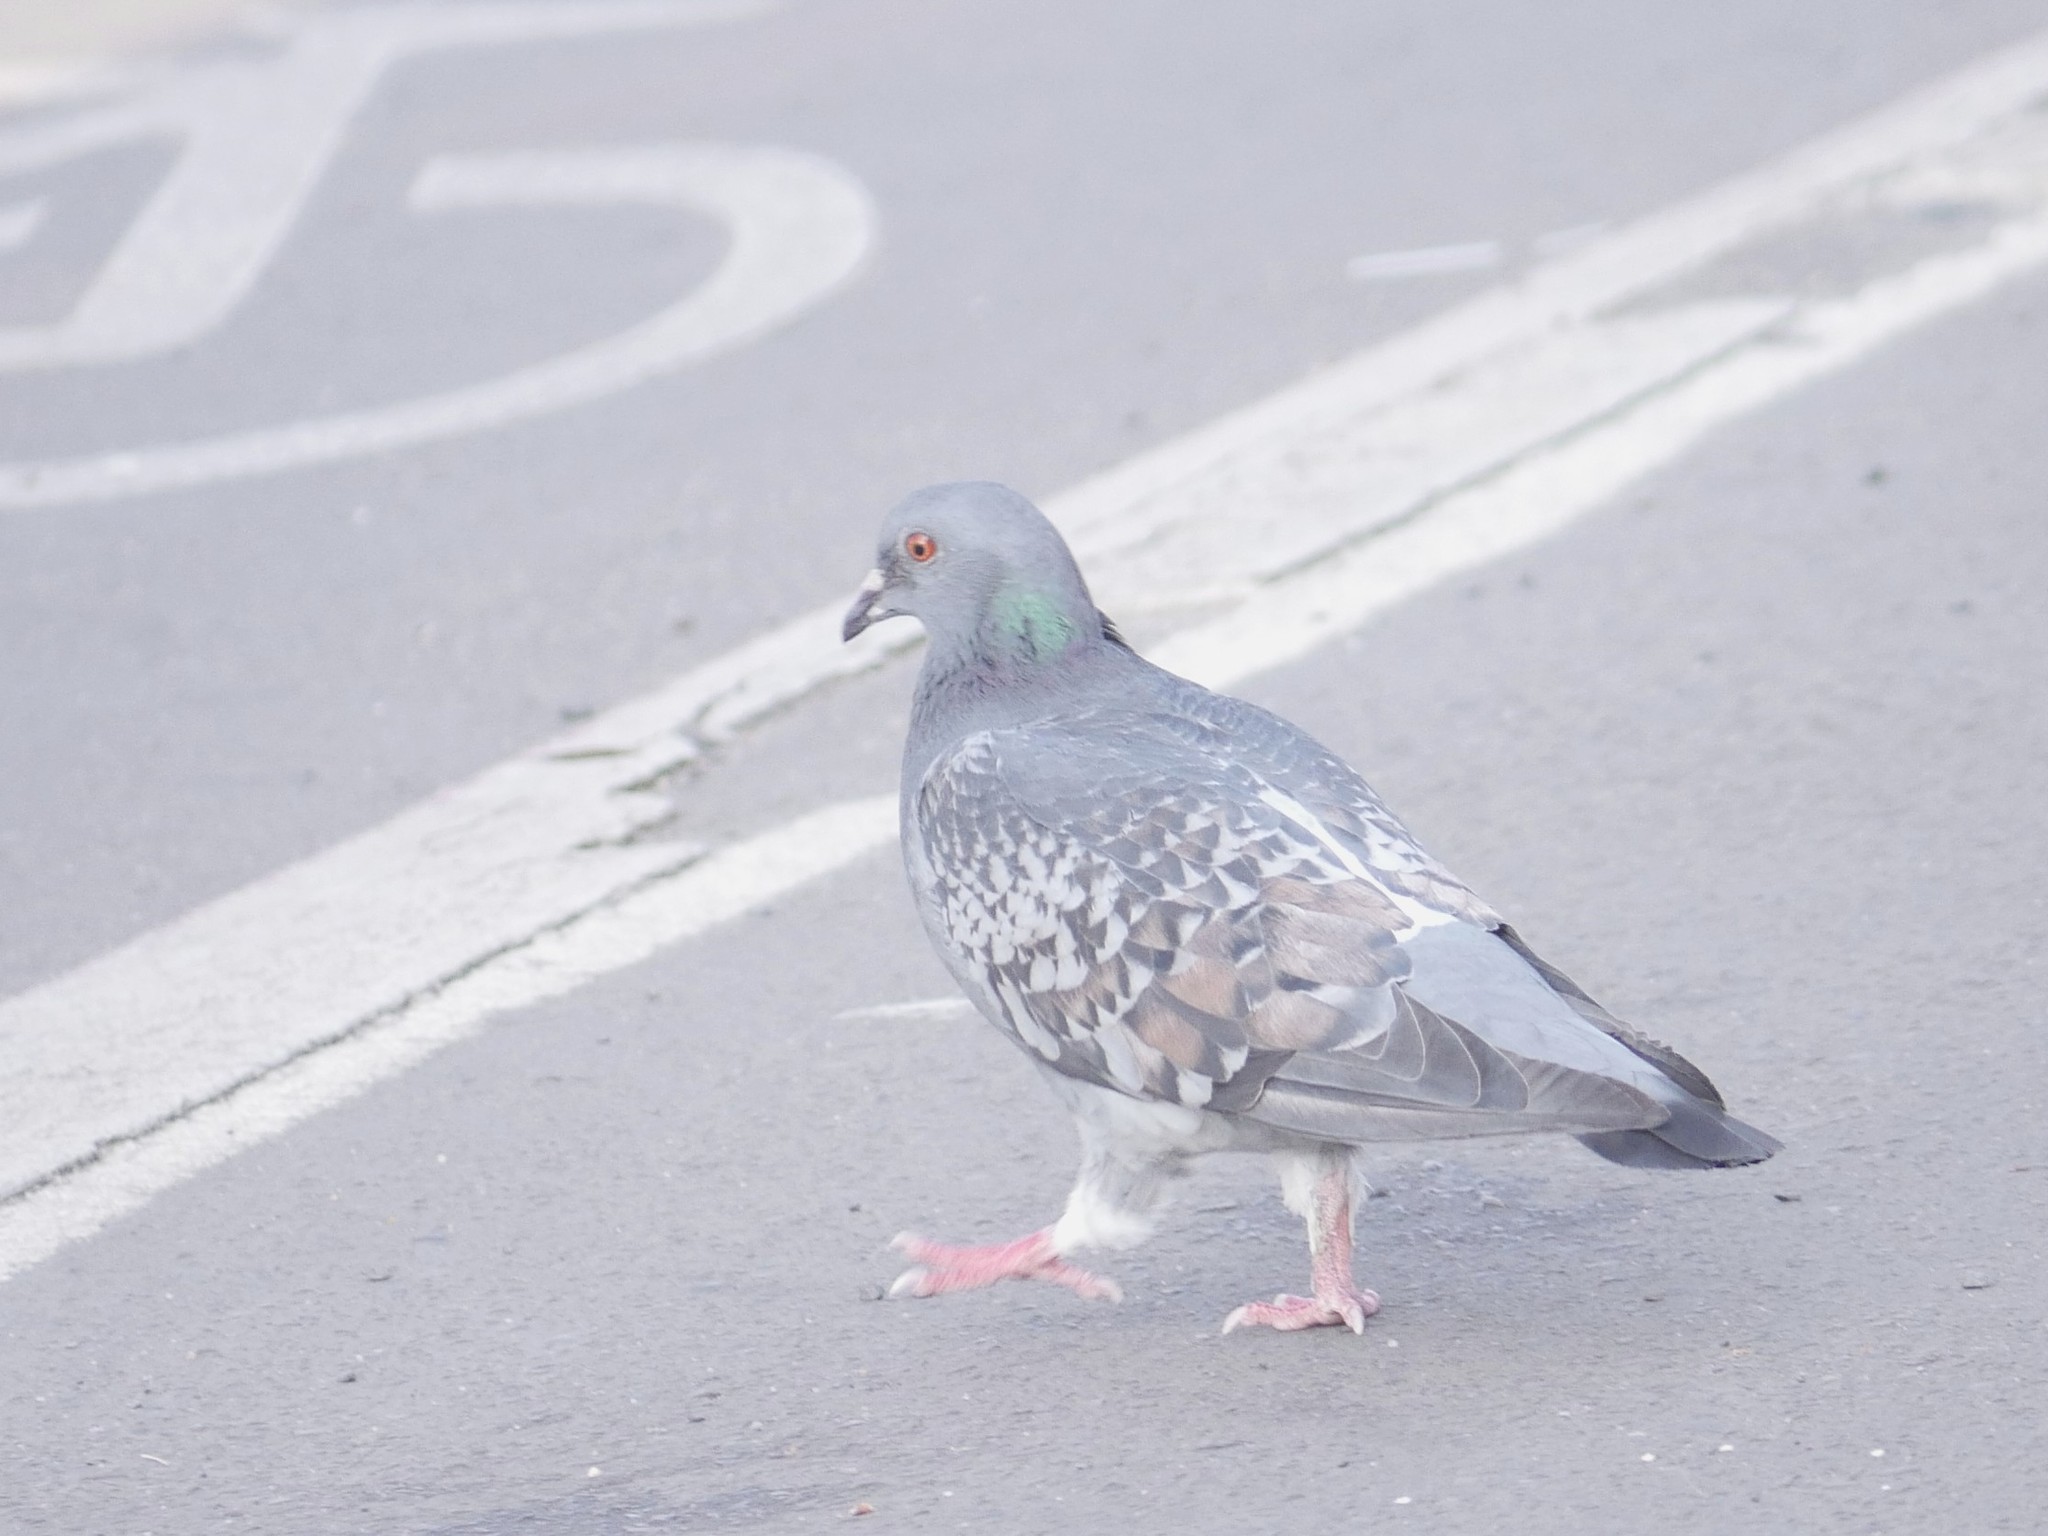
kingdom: Animalia
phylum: Chordata
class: Aves
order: Columbiformes
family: Columbidae
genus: Columba
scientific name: Columba livia
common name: Rock pigeon
